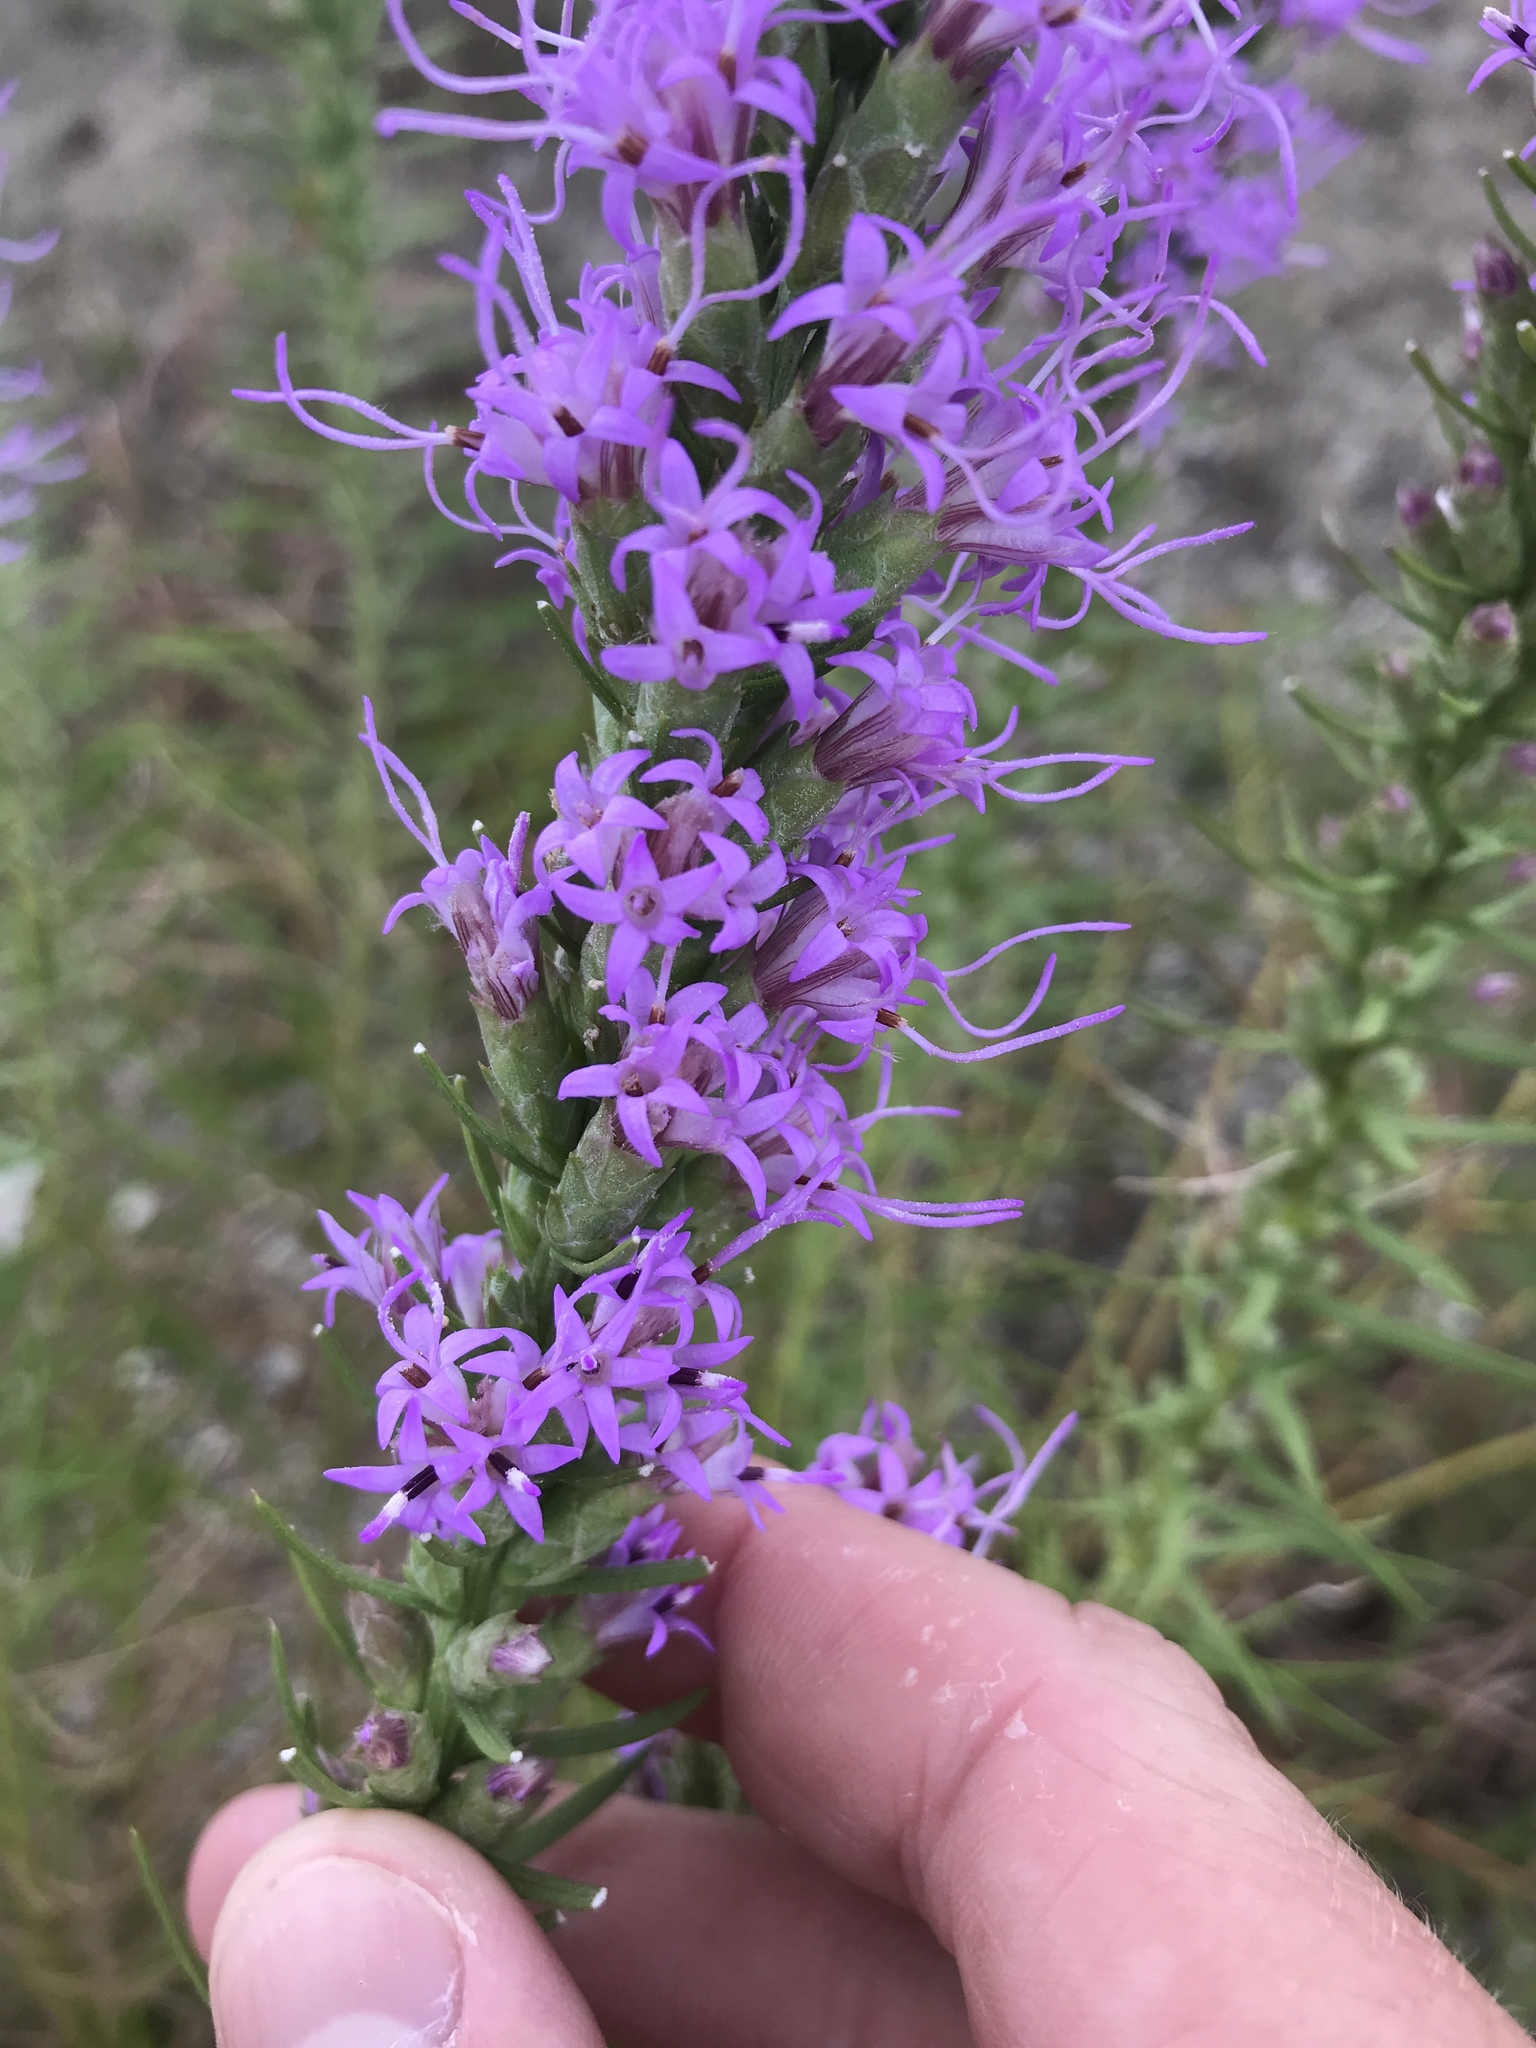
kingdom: Plantae
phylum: Tracheophyta
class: Magnoliopsida
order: Asterales
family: Asteraceae
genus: Liatris
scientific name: Liatris punctata
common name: Dotted gayfeather
